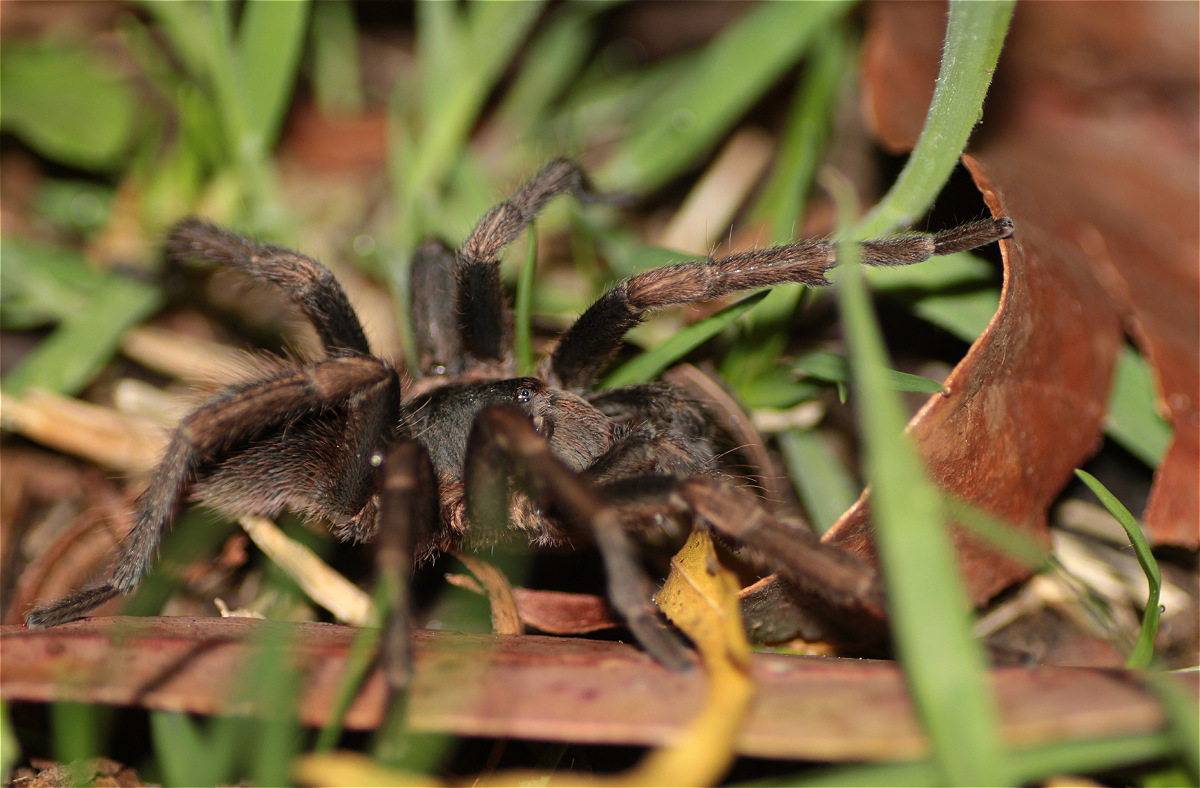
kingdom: Animalia
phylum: Arthropoda
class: Arachnida
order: Araneae
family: Theraphosidae
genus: Cyclosternum
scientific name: Cyclosternum schmardae
